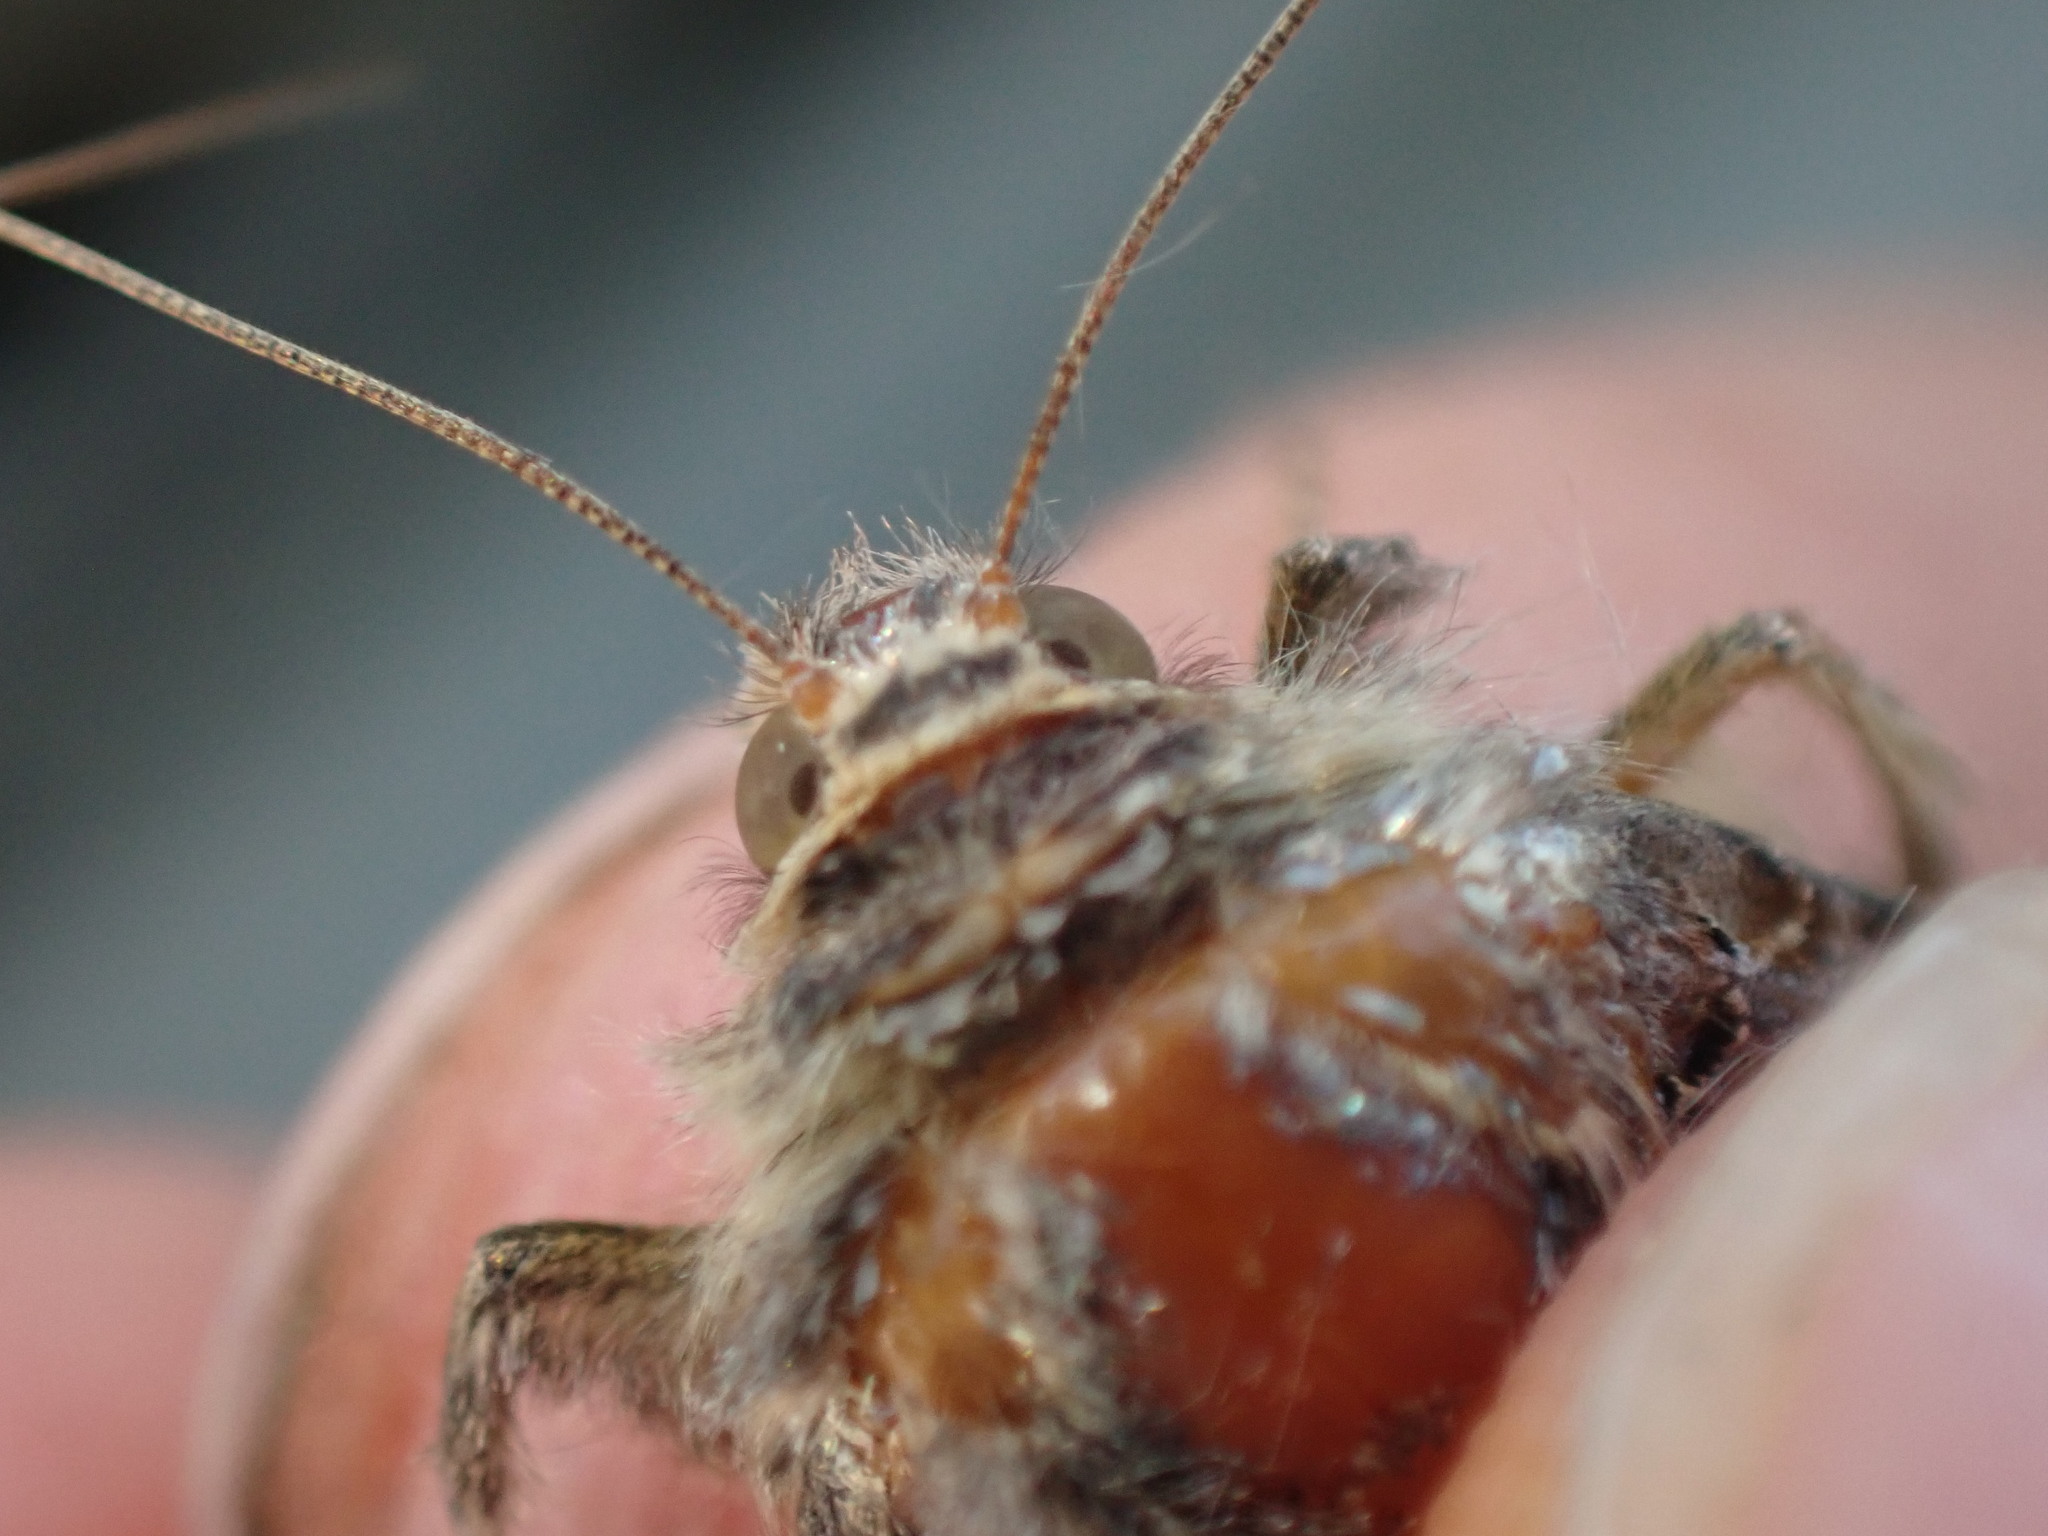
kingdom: Animalia
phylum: Arthropoda
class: Insecta
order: Lepidoptera
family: Noctuidae
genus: Autographa
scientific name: Autographa gamma
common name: Silver y
